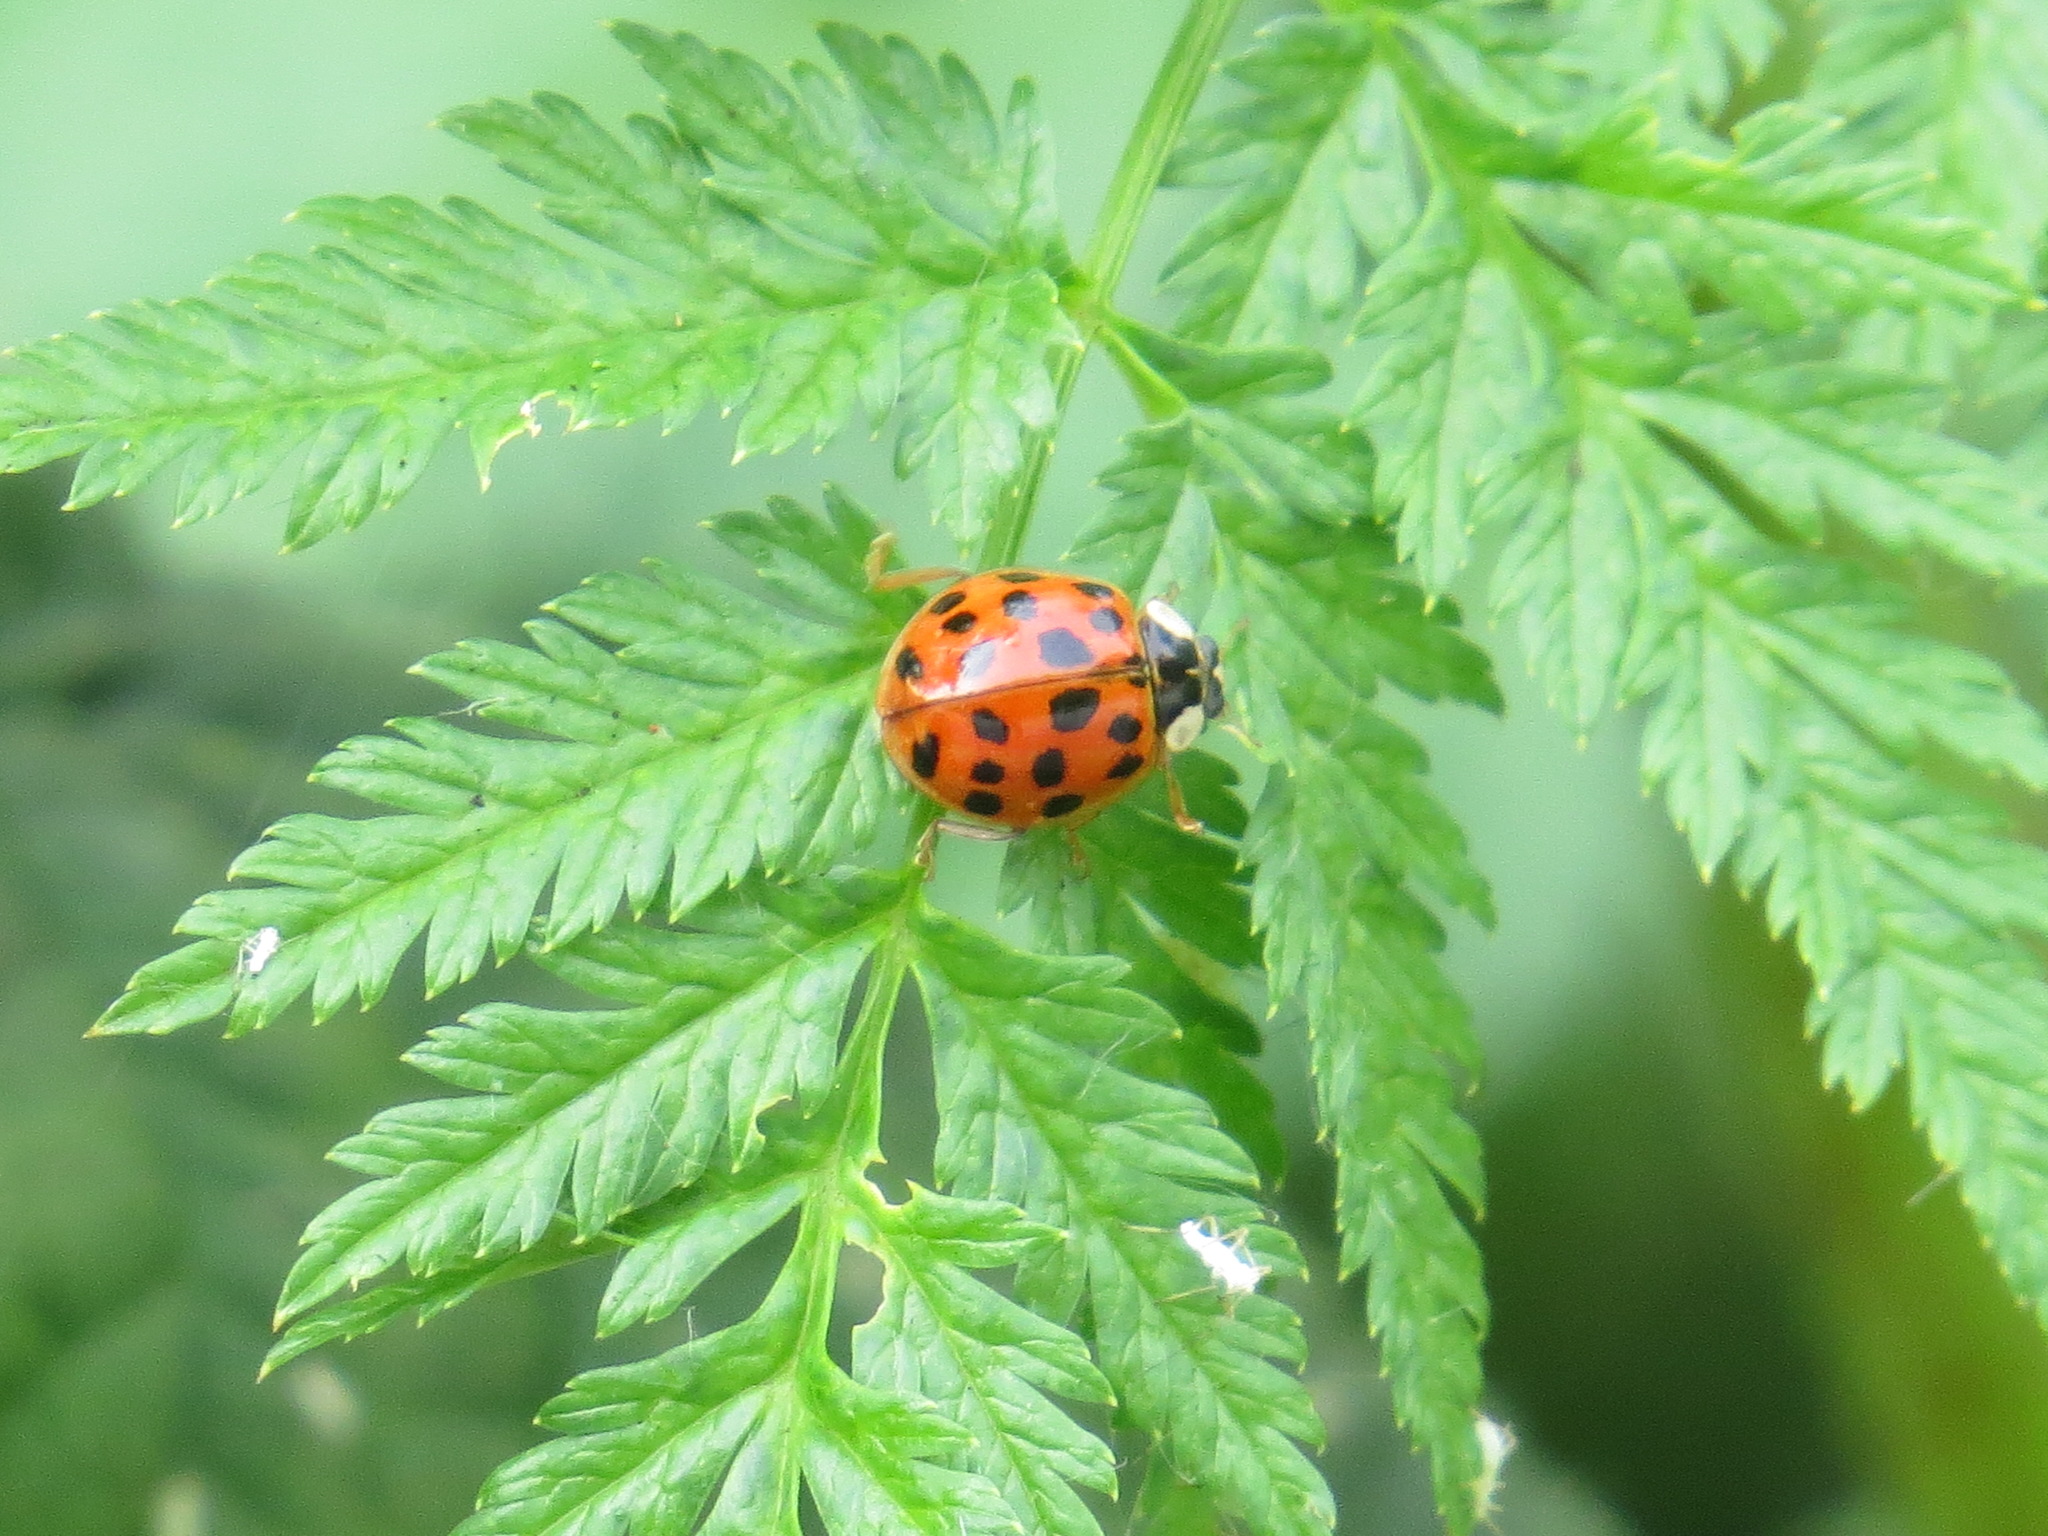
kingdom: Animalia
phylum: Arthropoda
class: Insecta
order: Coleoptera
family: Coccinellidae
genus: Harmonia
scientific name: Harmonia axyridis
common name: Harlequin ladybird
